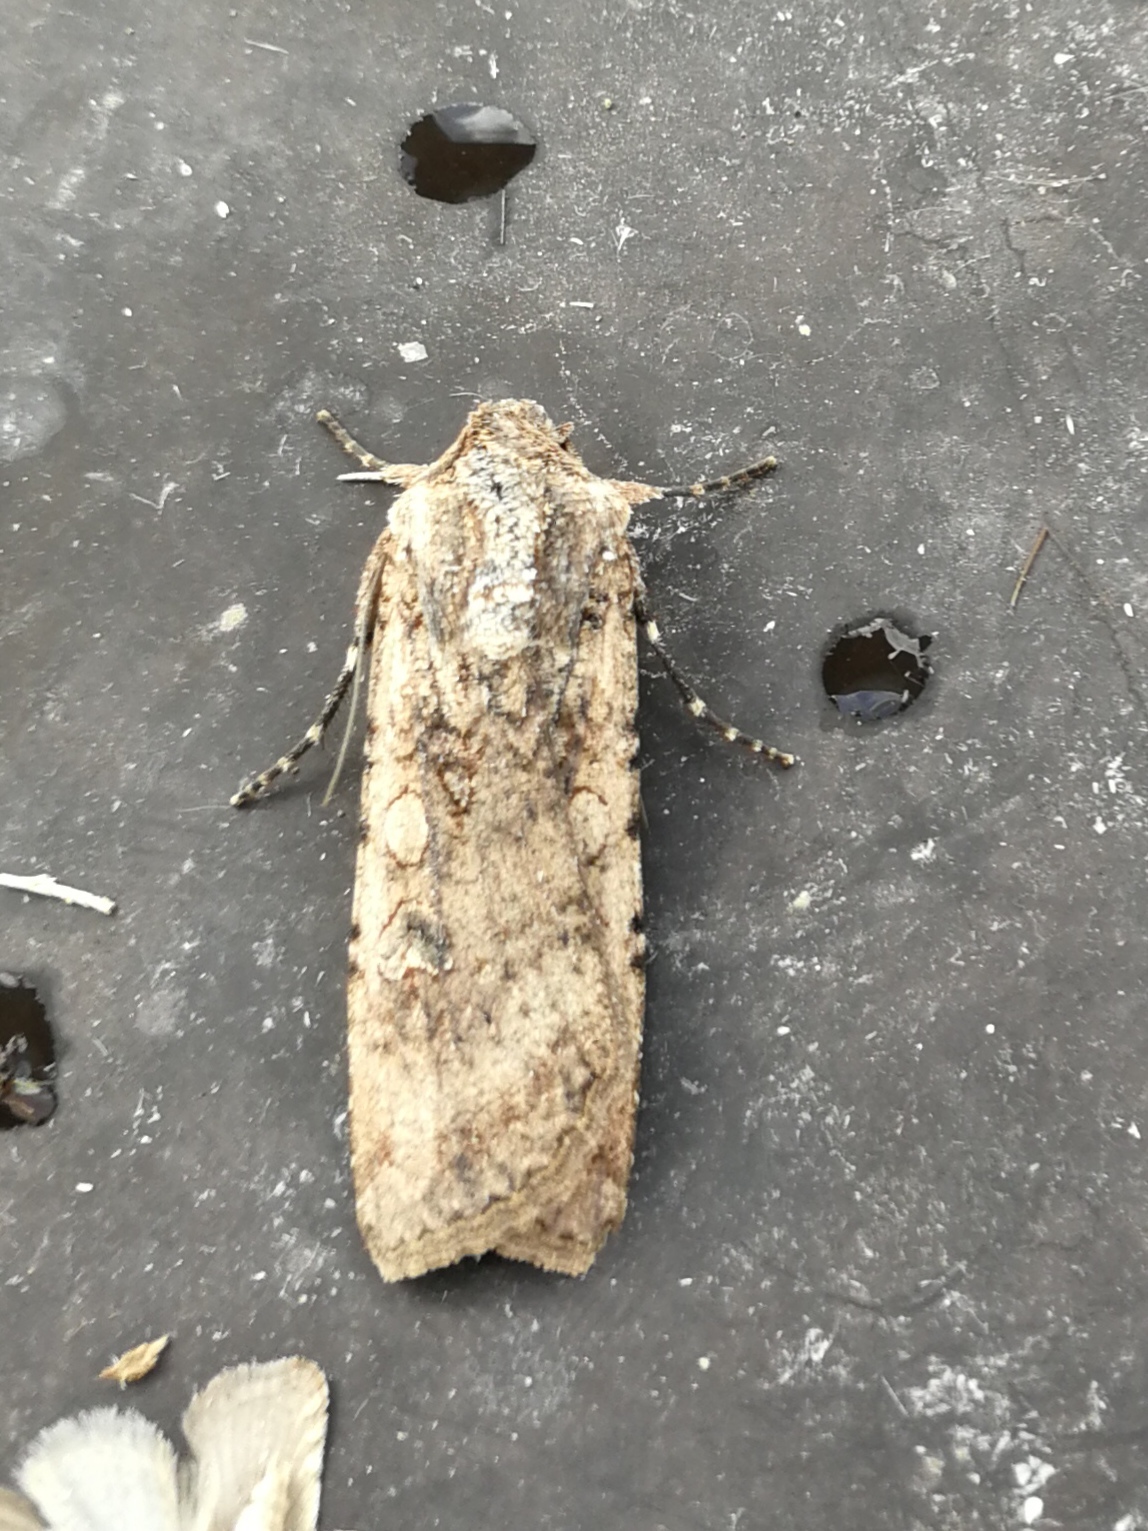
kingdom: Animalia
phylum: Arthropoda
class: Insecta
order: Lepidoptera
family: Noctuidae
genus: Peridroma
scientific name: Peridroma saucia
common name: Pearly underwing
